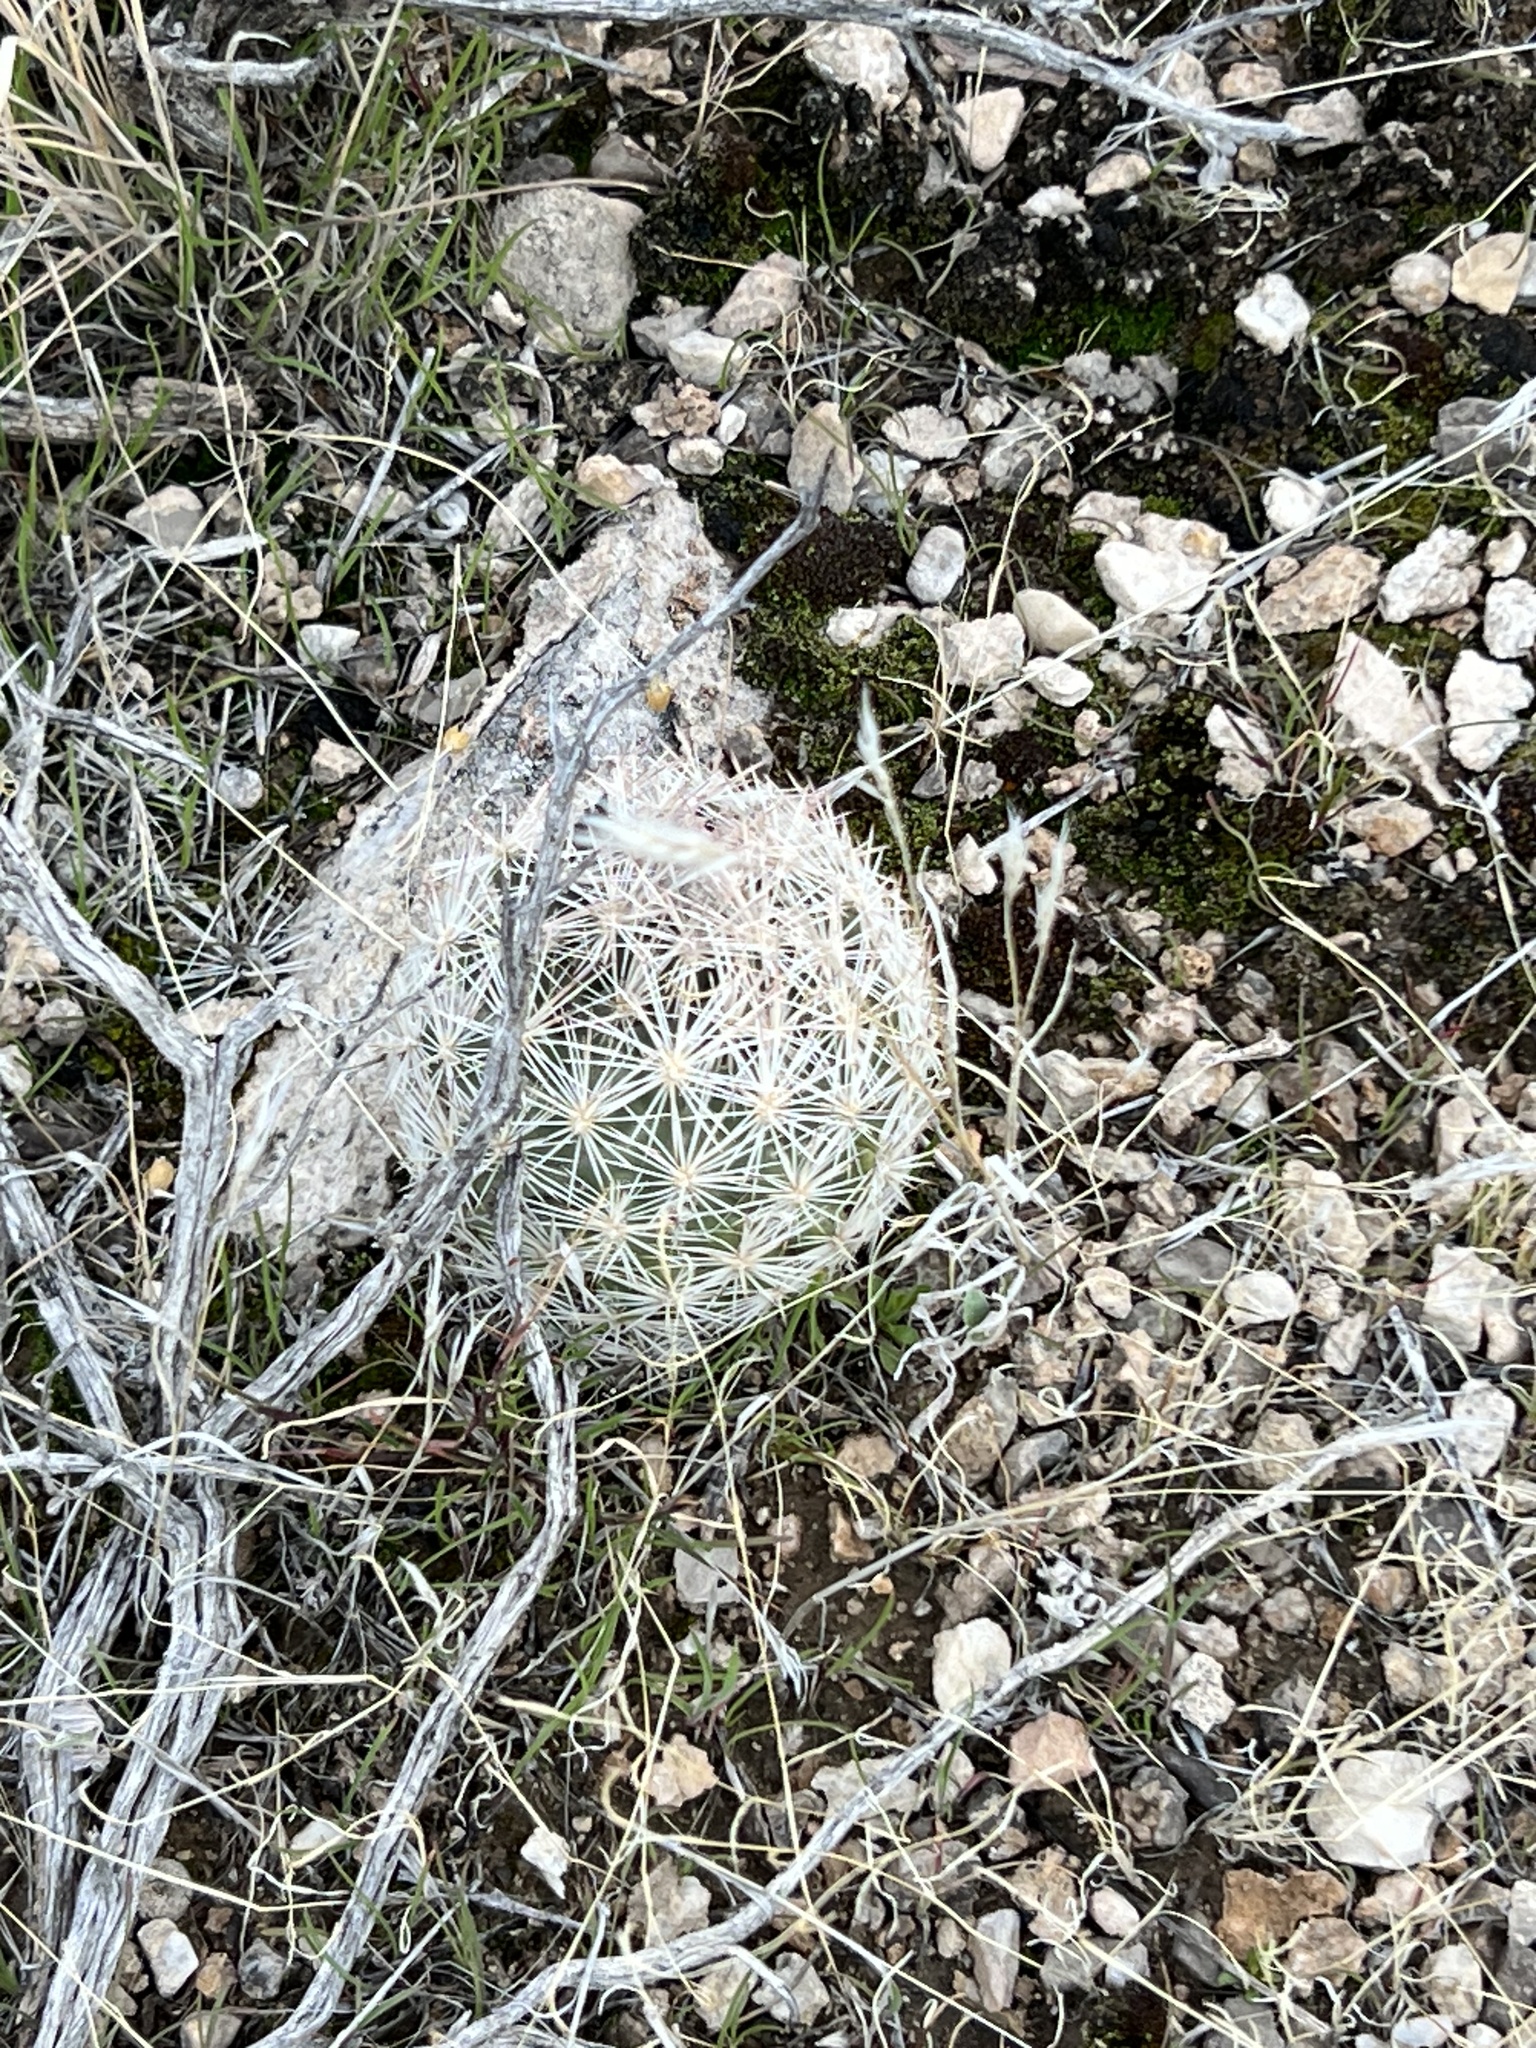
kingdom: Plantae
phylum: Tracheophyta
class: Magnoliopsida
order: Caryophyllales
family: Cactaceae
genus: Pelecyphora
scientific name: Pelecyphora dasyacantha
